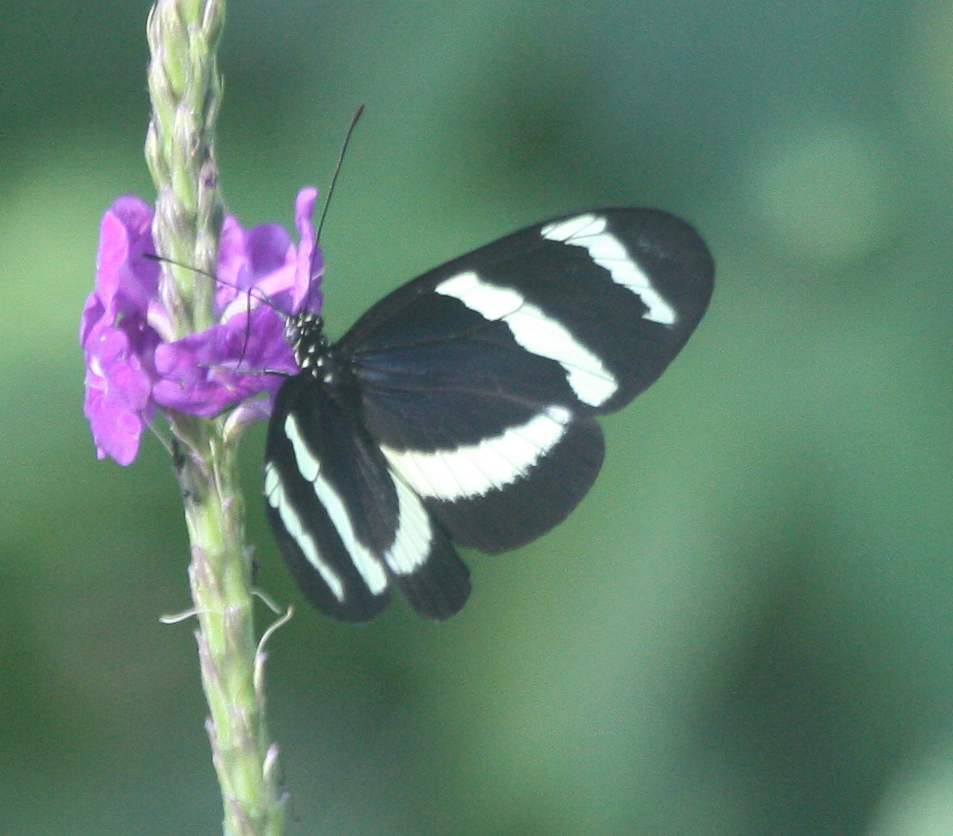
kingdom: Animalia
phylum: Arthropoda
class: Insecta
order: Lepidoptera
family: Nymphalidae
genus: Heliconius
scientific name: Heliconius hewitsoni
